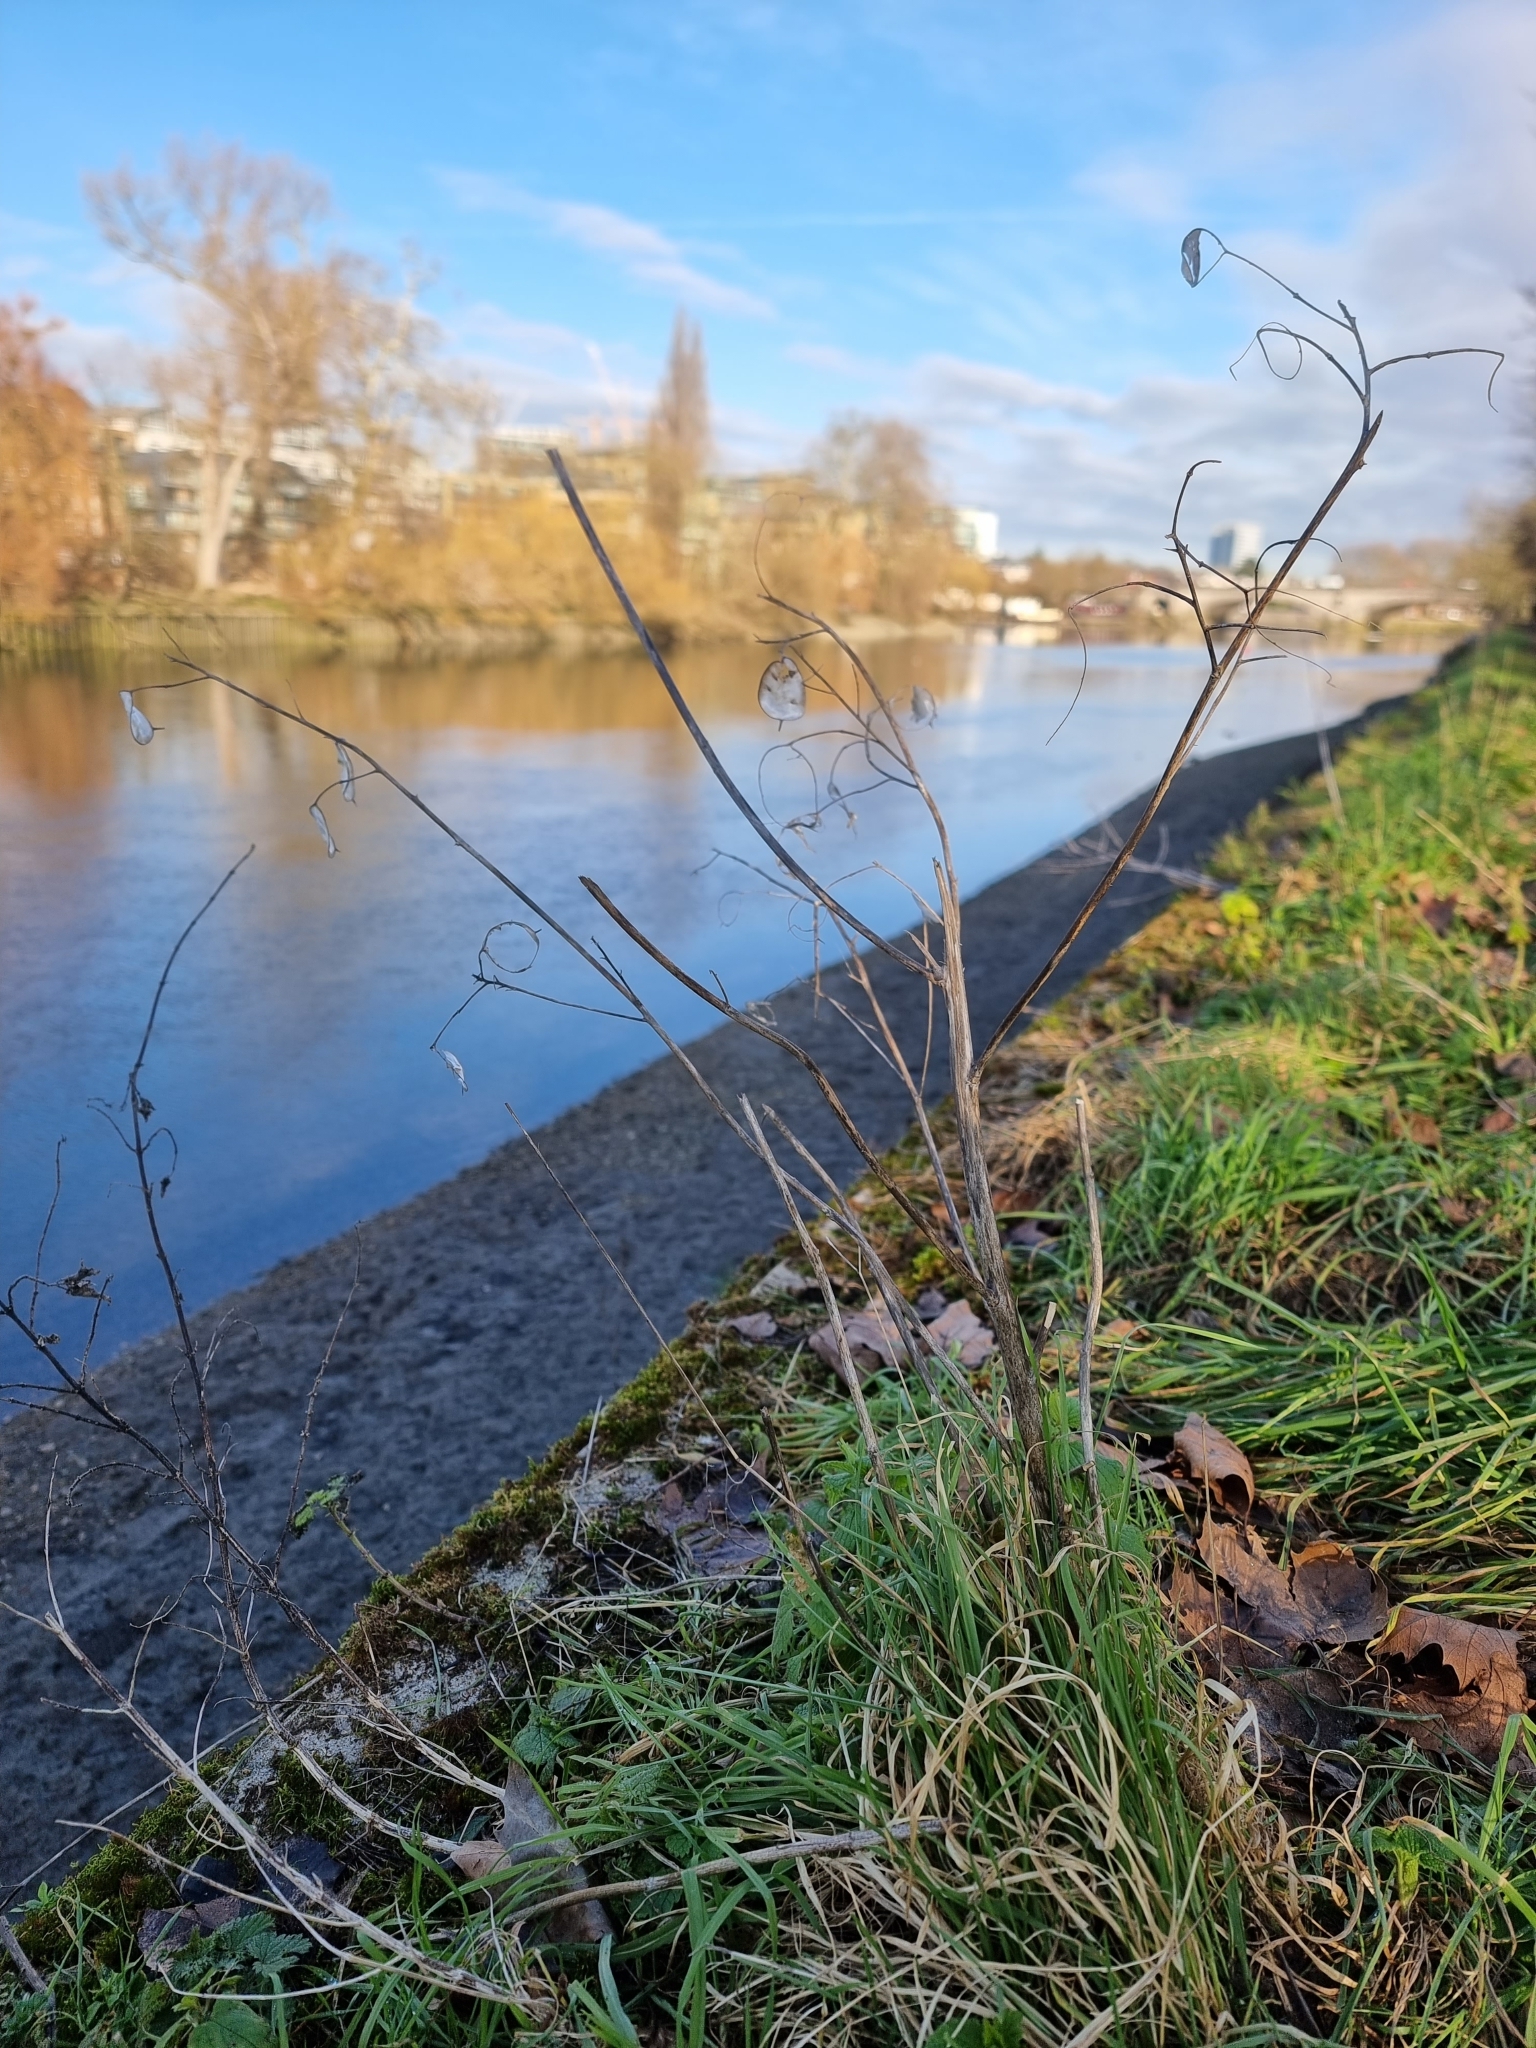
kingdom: Plantae
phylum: Tracheophyta
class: Magnoliopsida
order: Brassicales
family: Brassicaceae
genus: Lunaria
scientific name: Lunaria annua
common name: Honesty
